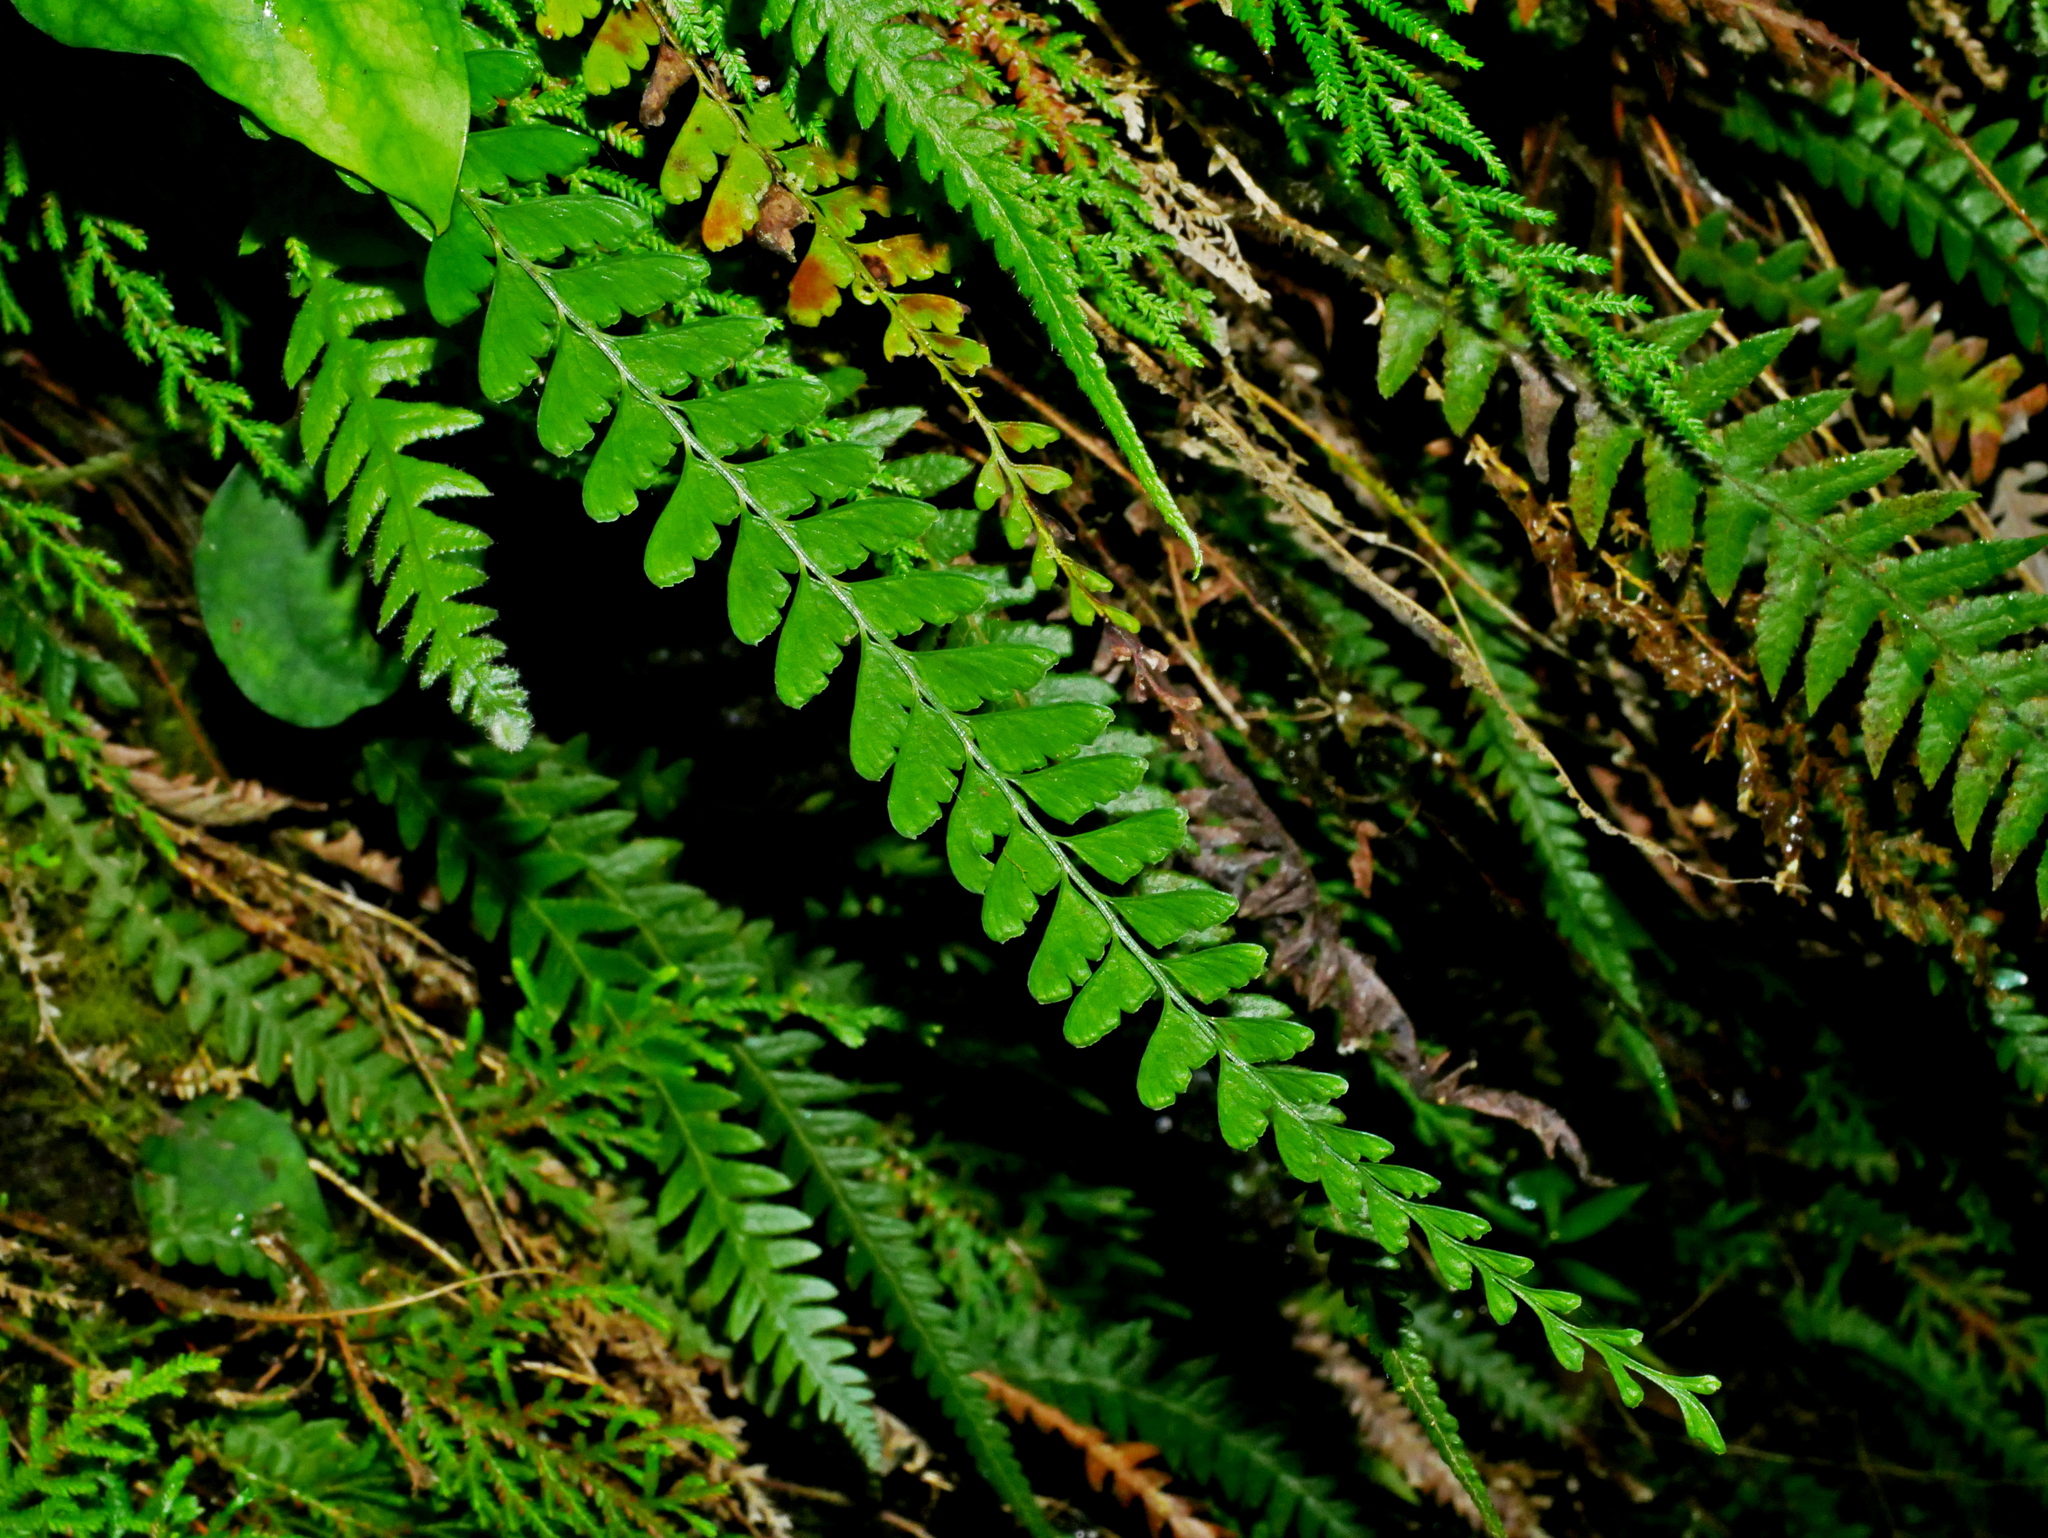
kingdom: Plantae
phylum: Tracheophyta
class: Polypodiopsida
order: Polypodiales
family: Lindsaeaceae
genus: Osmolindsaea
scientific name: Osmolindsaea odorata
